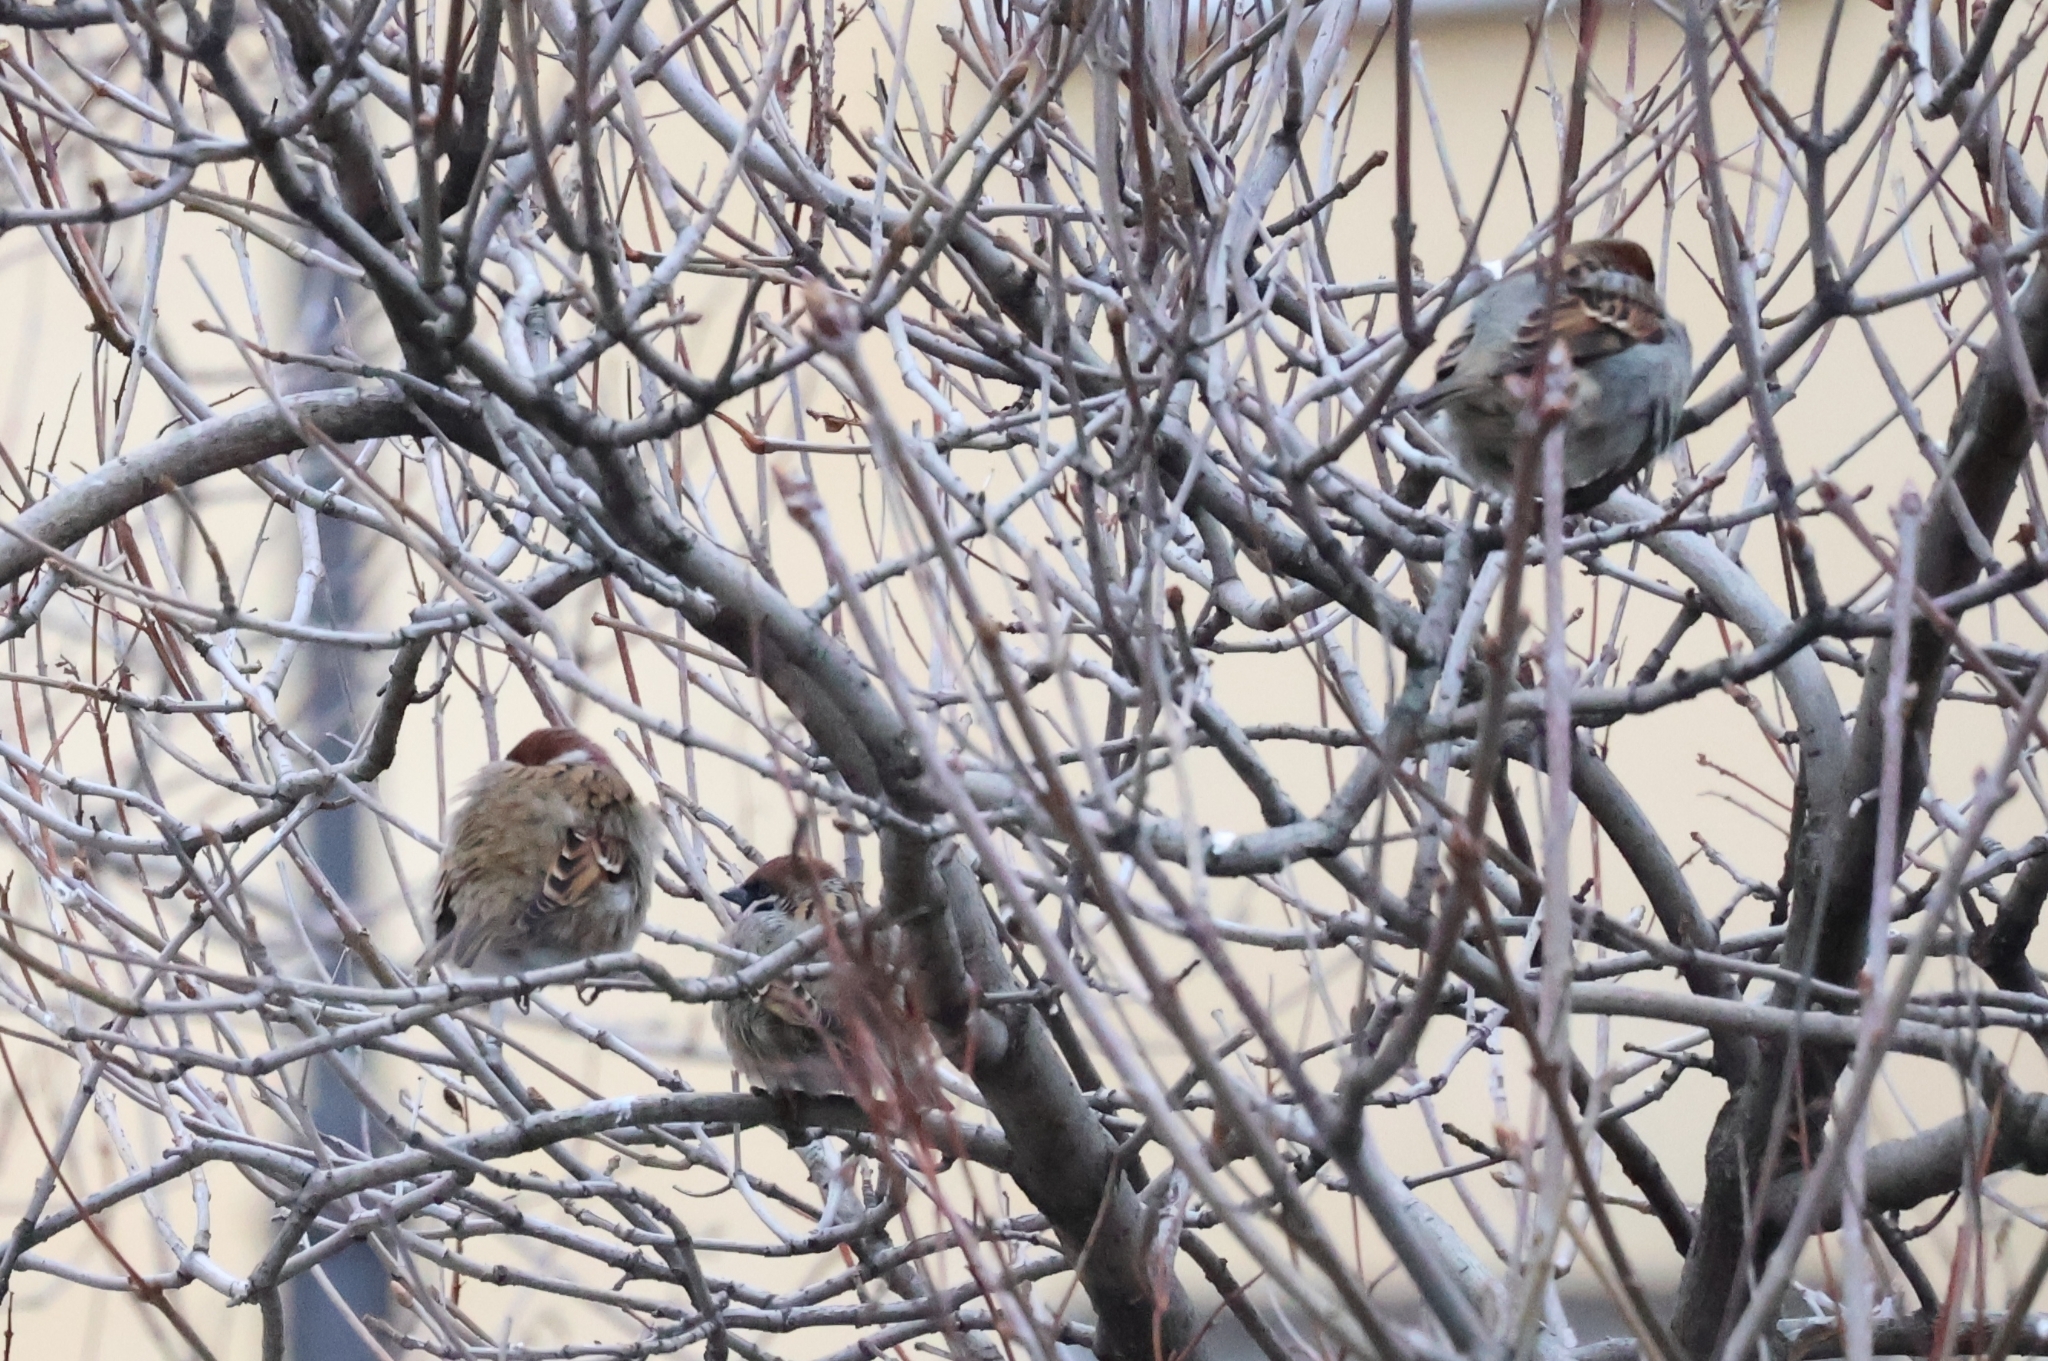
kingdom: Animalia
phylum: Chordata
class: Aves
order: Passeriformes
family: Passeridae
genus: Passer
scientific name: Passer montanus
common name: Eurasian tree sparrow
